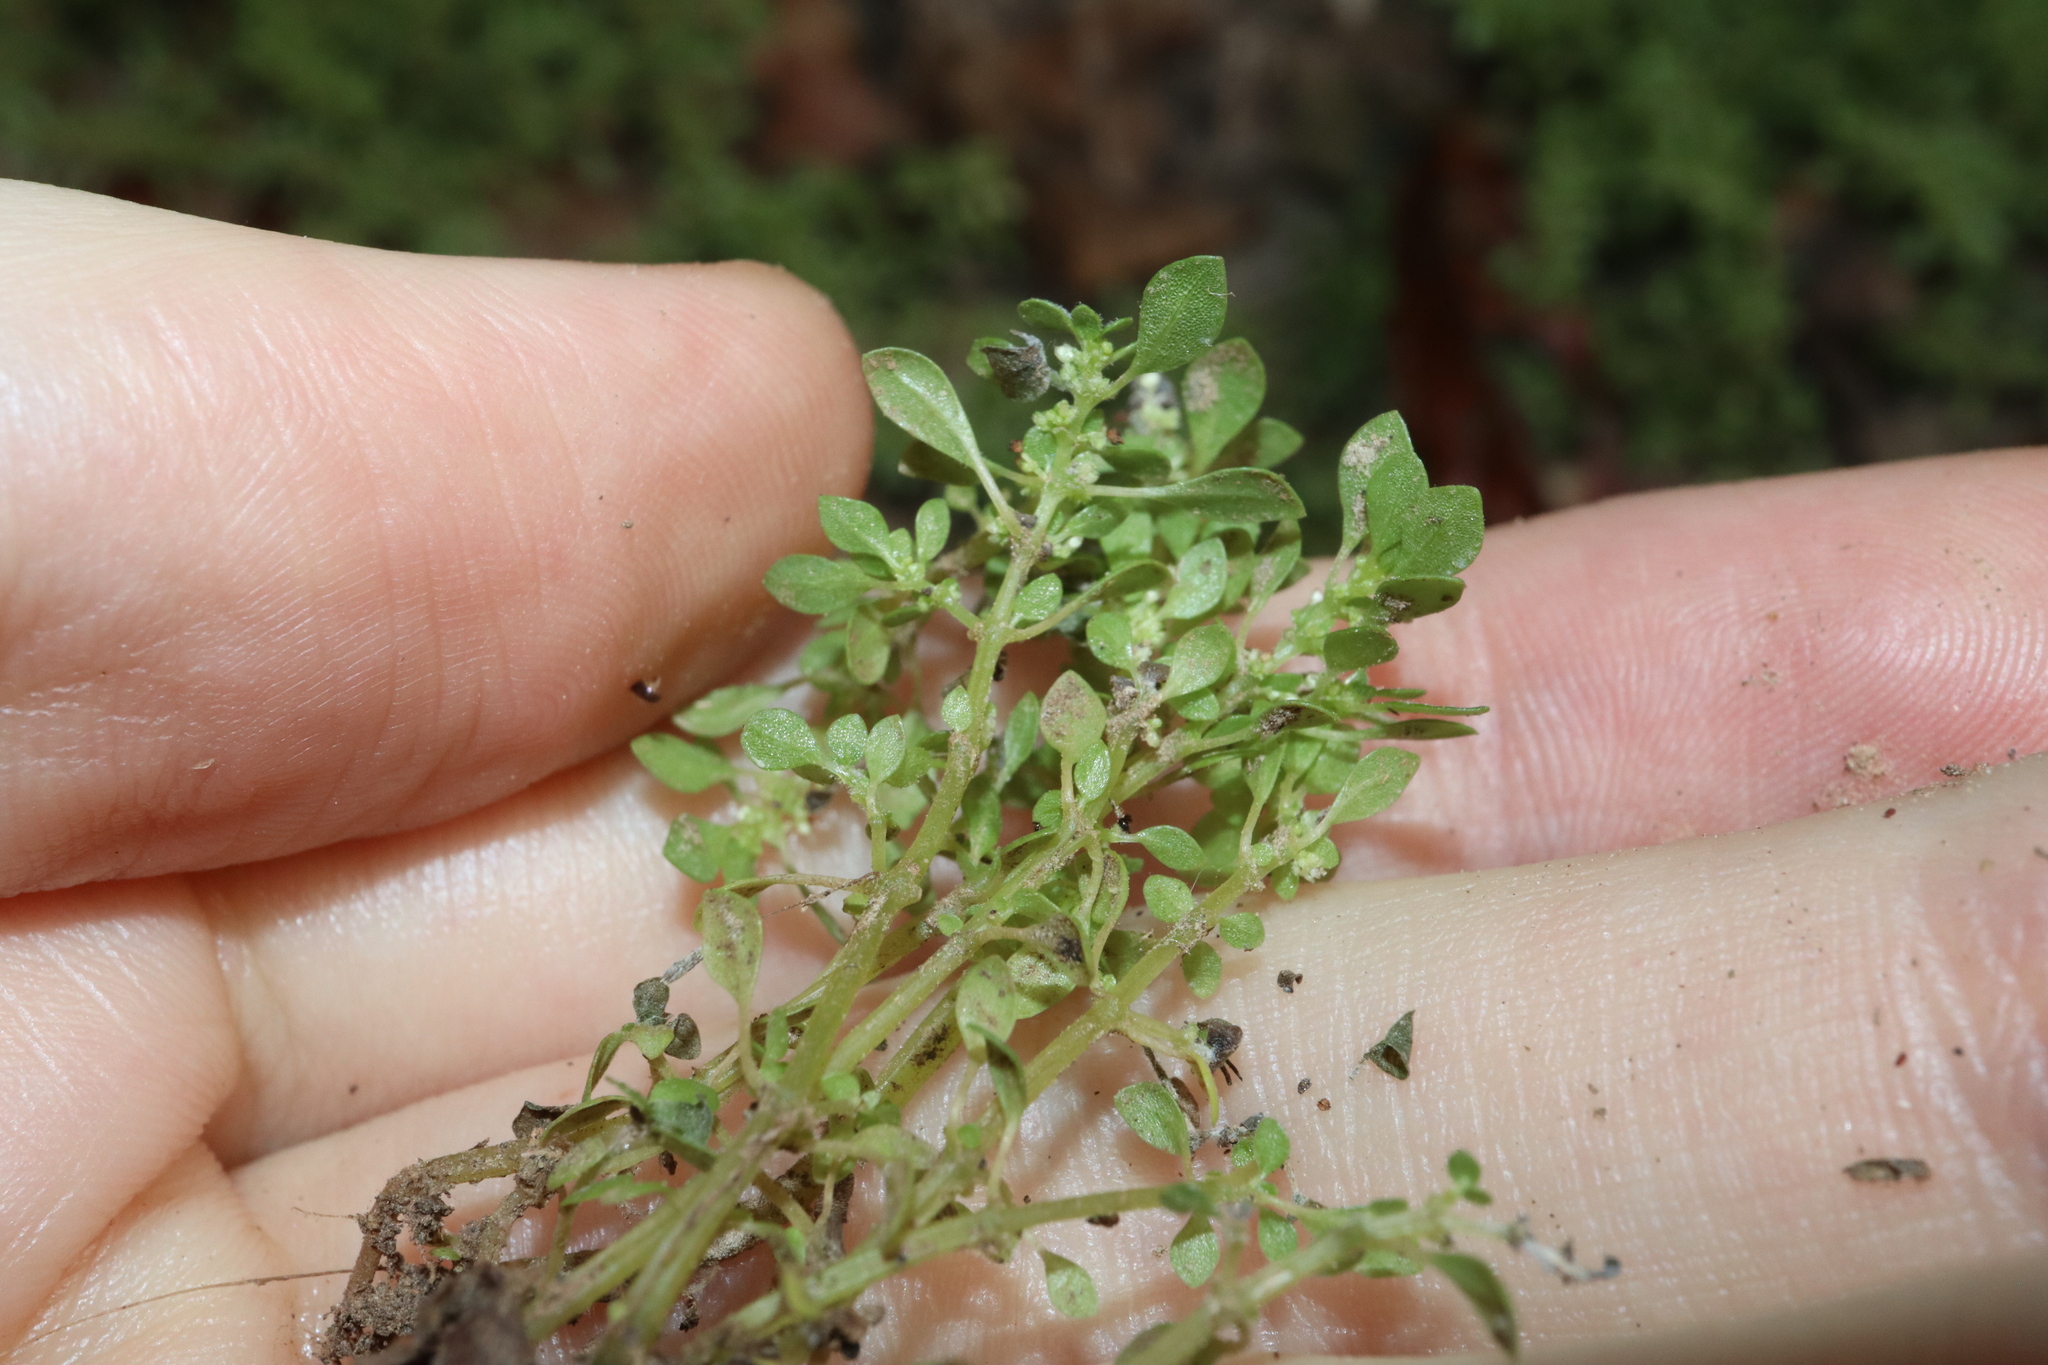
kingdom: Plantae
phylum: Tracheophyta
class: Magnoliopsida
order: Rosales
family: Urticaceae
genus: Pilea
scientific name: Pilea microphylla
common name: Artillery-plant
